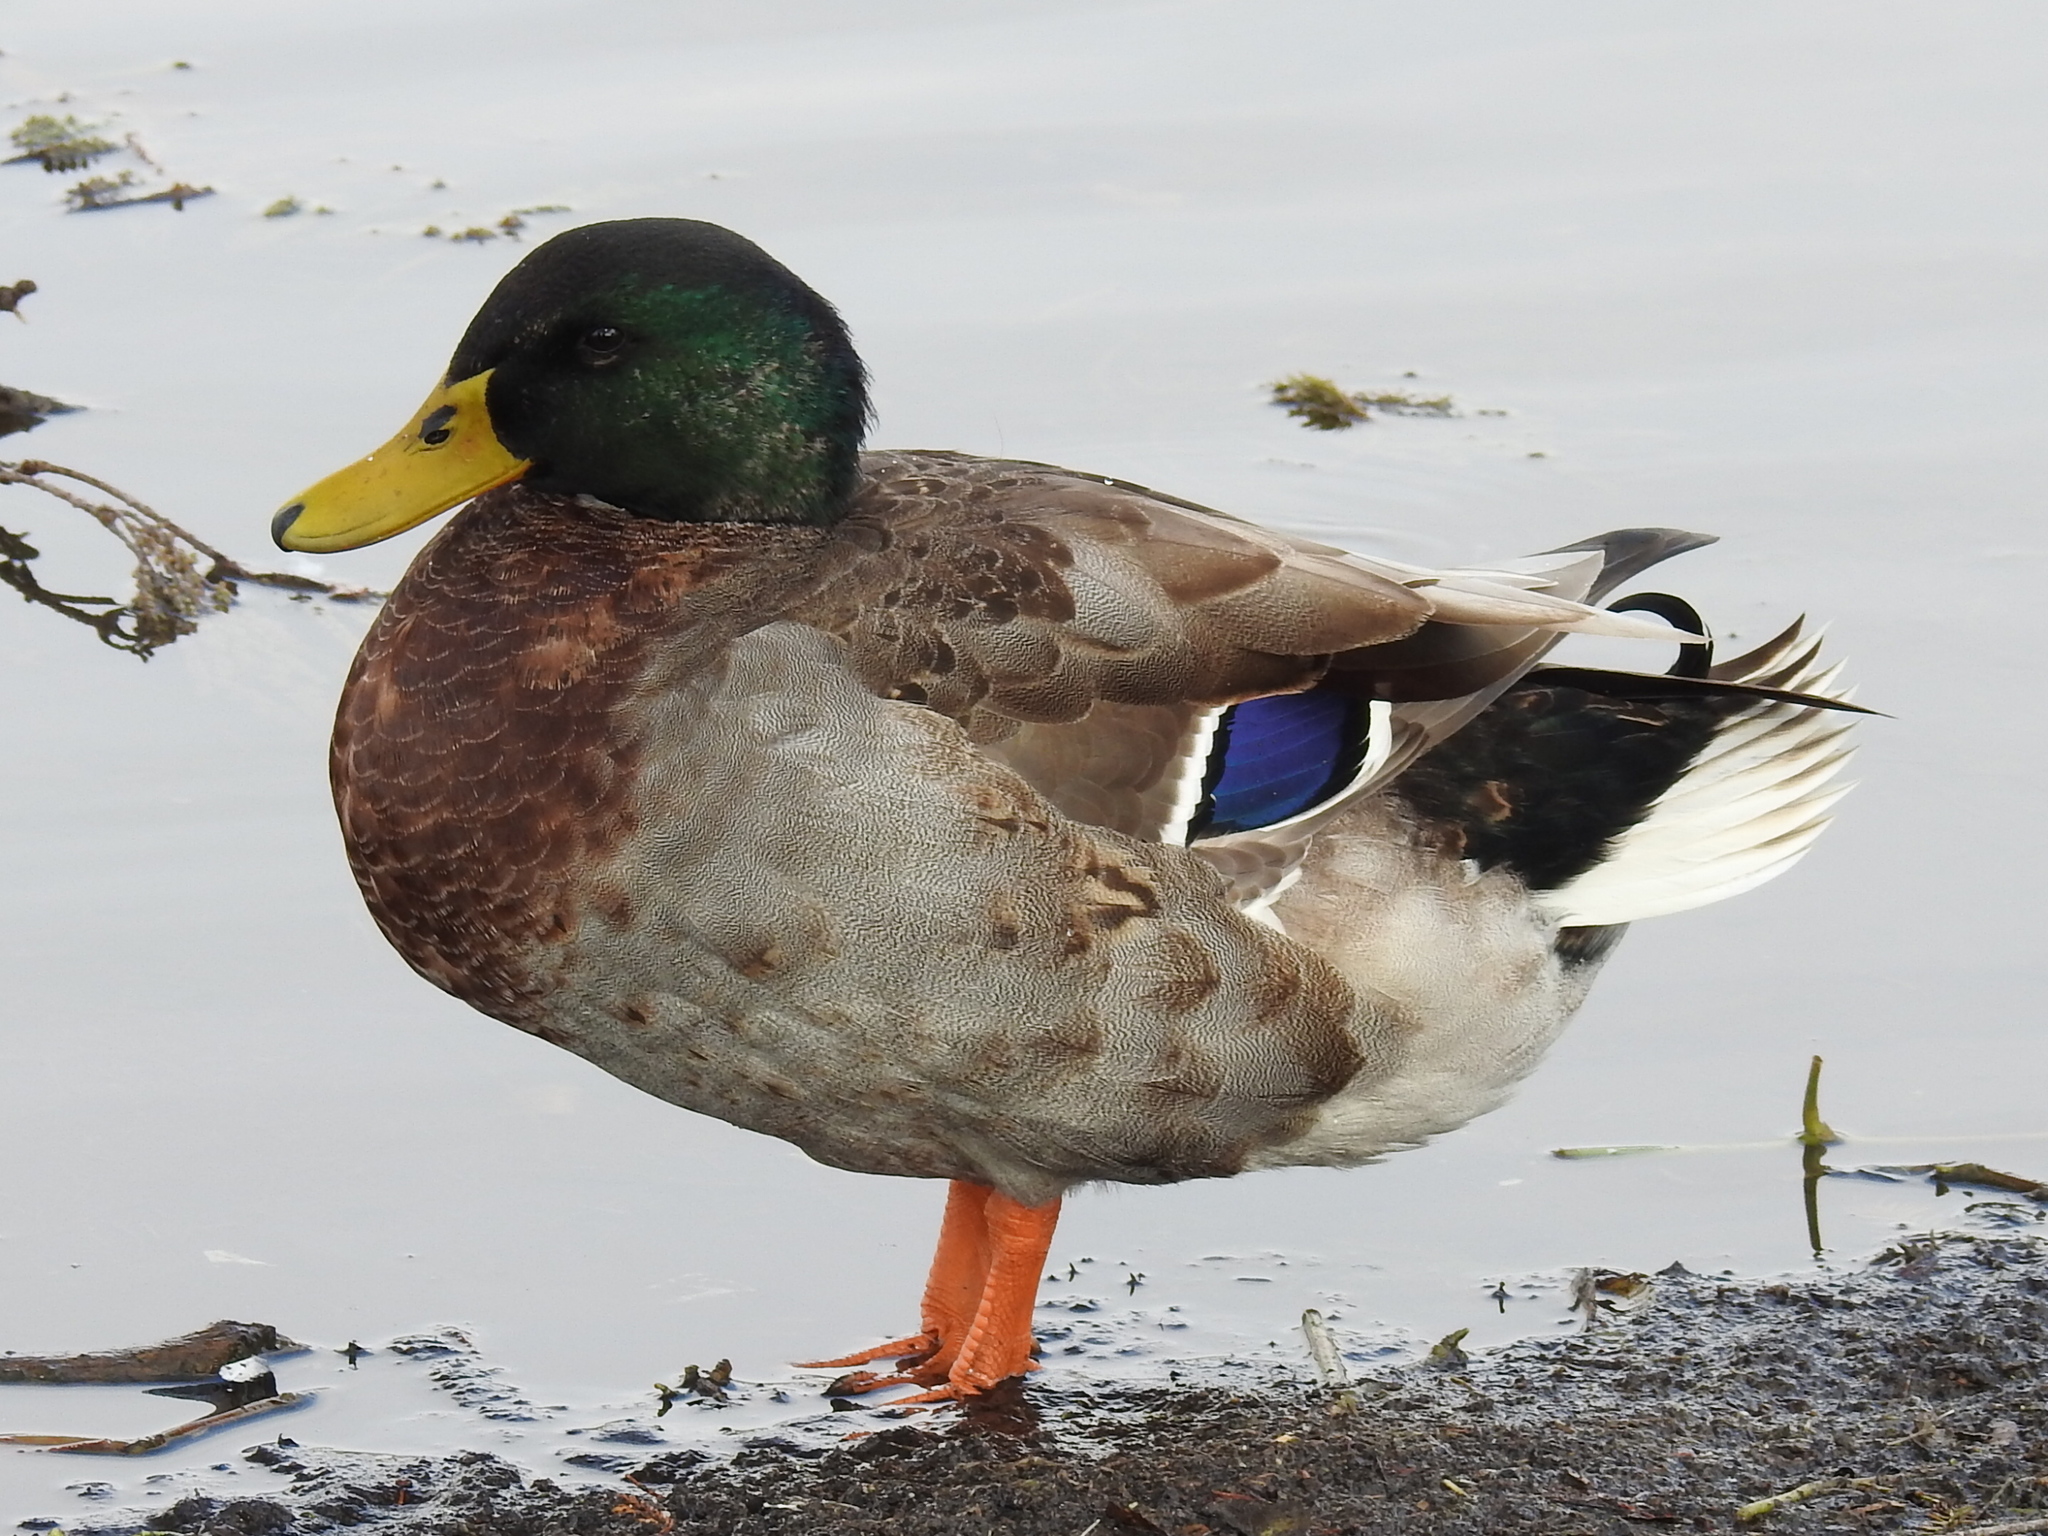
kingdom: Animalia
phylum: Chordata
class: Aves
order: Anseriformes
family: Anatidae
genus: Anas
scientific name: Anas platyrhynchos
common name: Mallard
